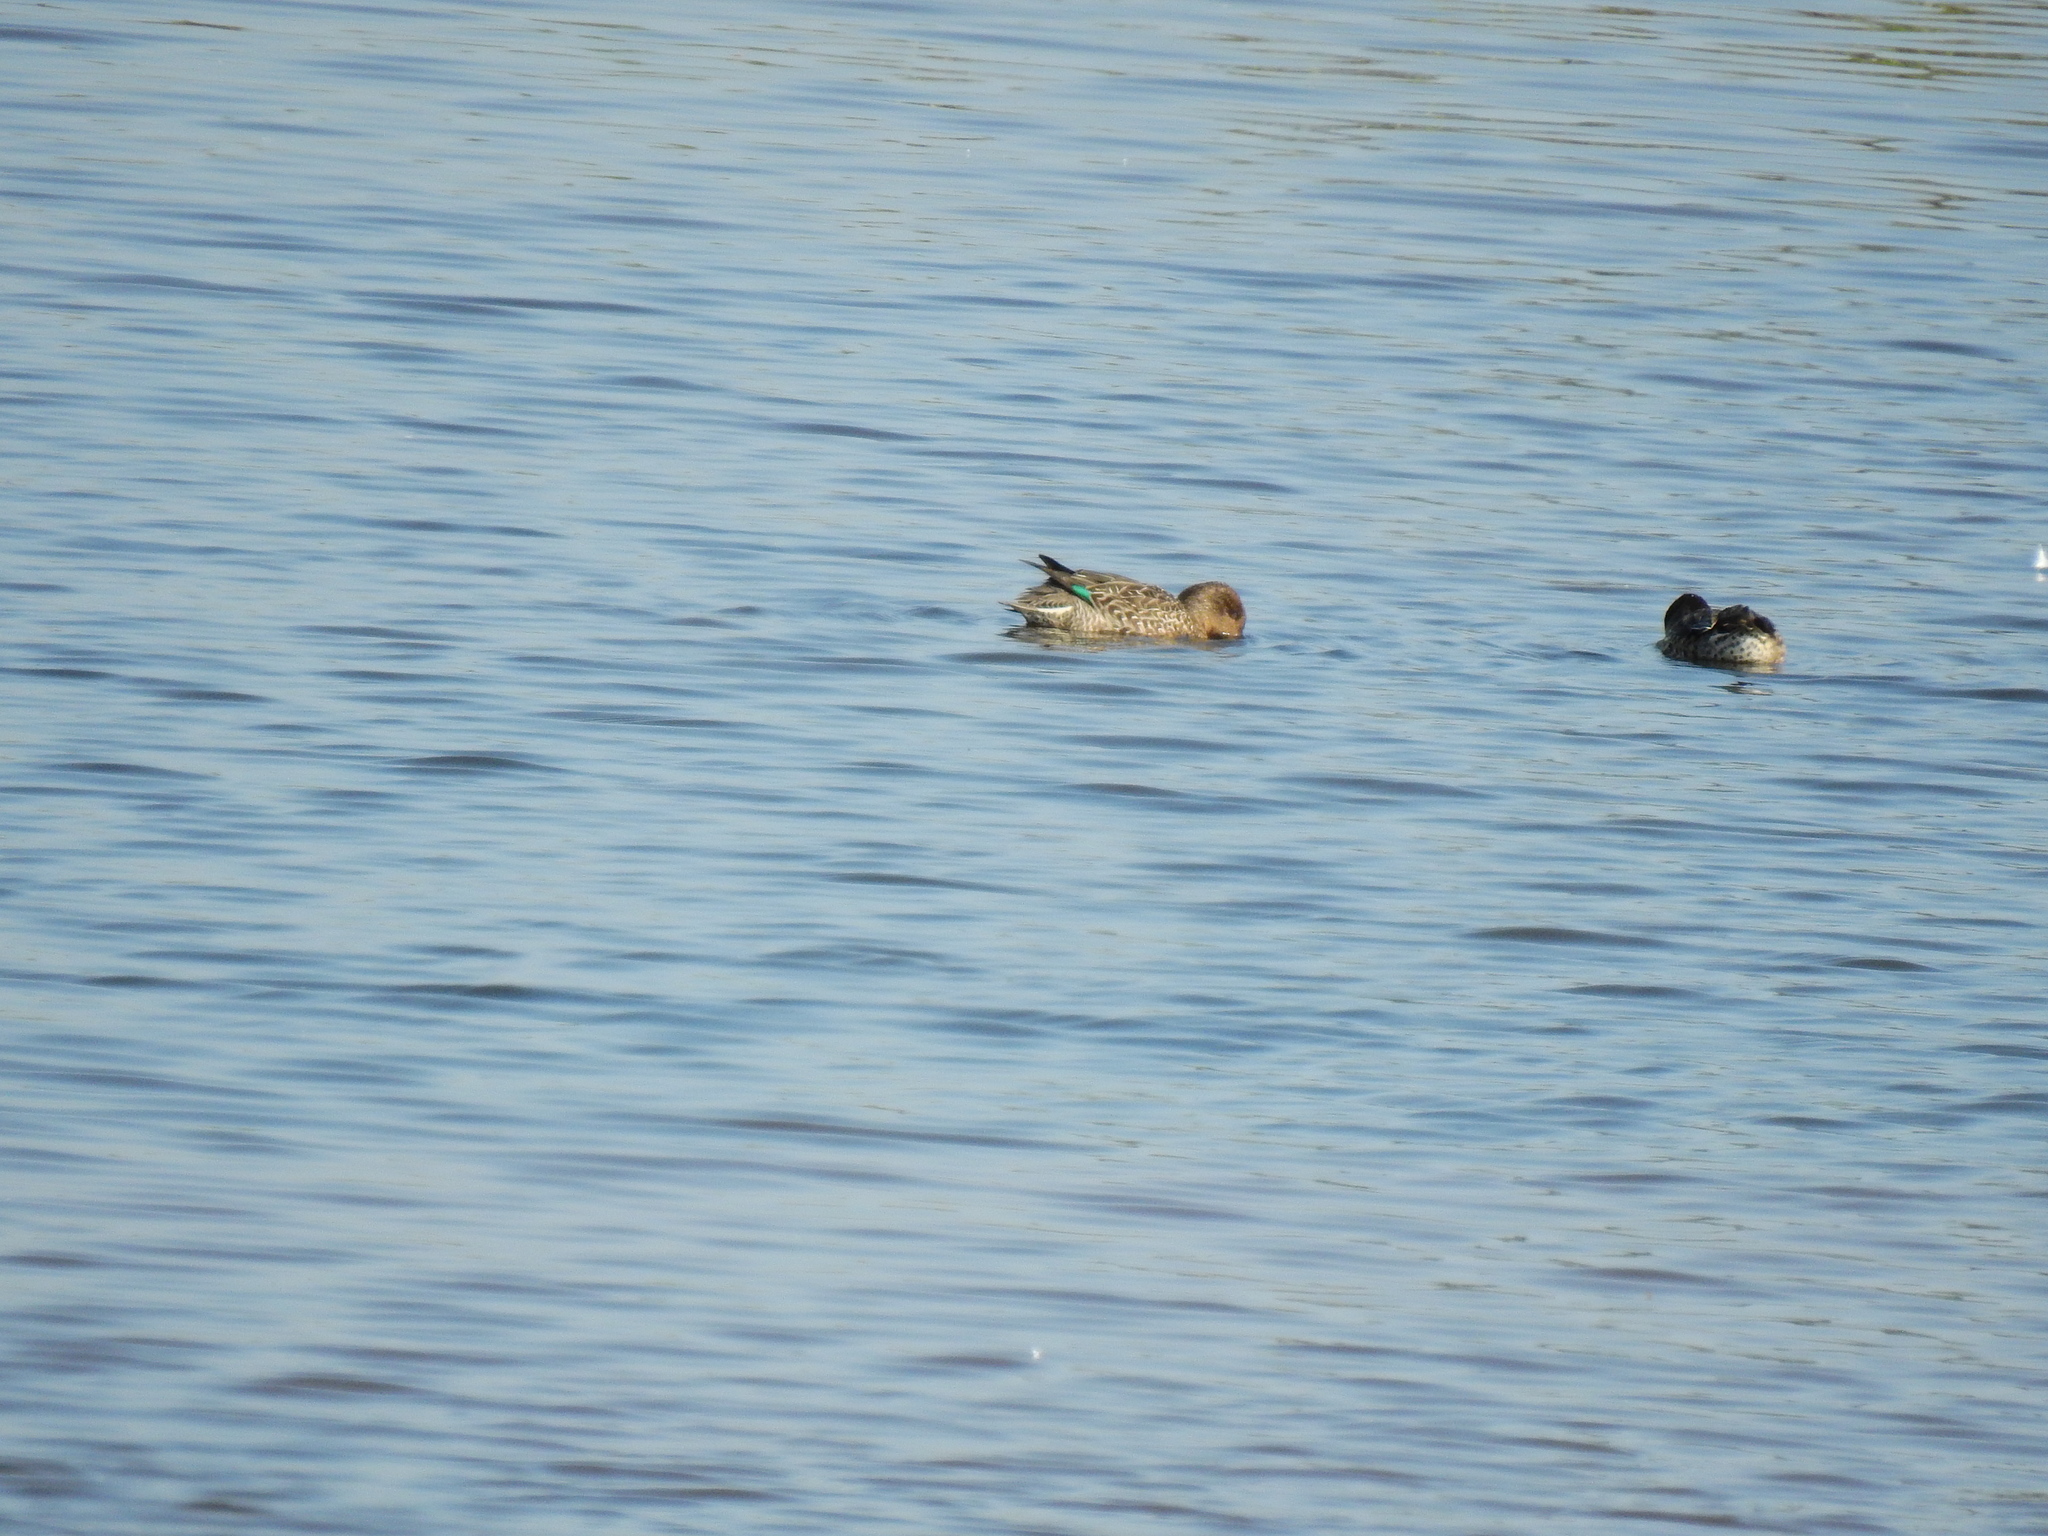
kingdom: Animalia
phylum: Chordata
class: Aves
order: Anseriformes
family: Anatidae
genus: Anas
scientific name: Anas crecca
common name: Eurasian teal
